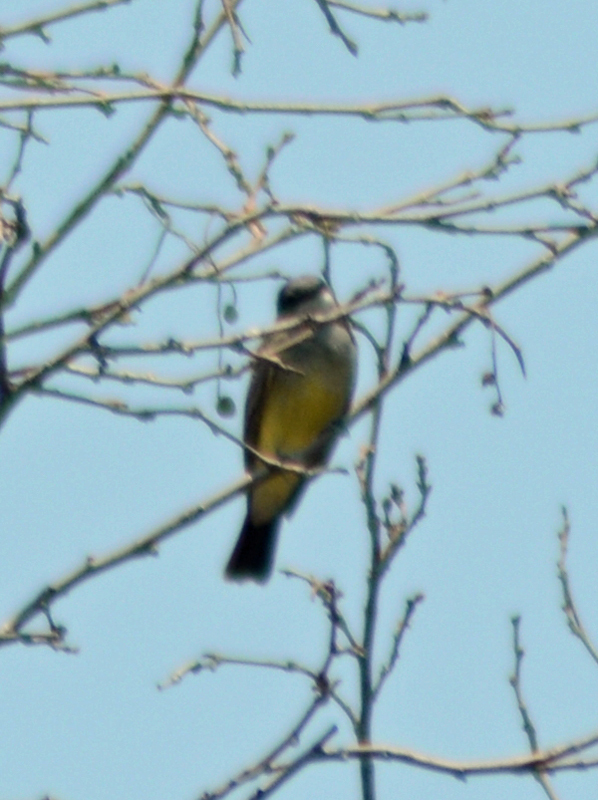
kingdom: Animalia
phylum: Chordata
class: Aves
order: Passeriformes
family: Tyrannidae
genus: Tyrannus
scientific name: Tyrannus vociferans
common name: Cassin's kingbird
